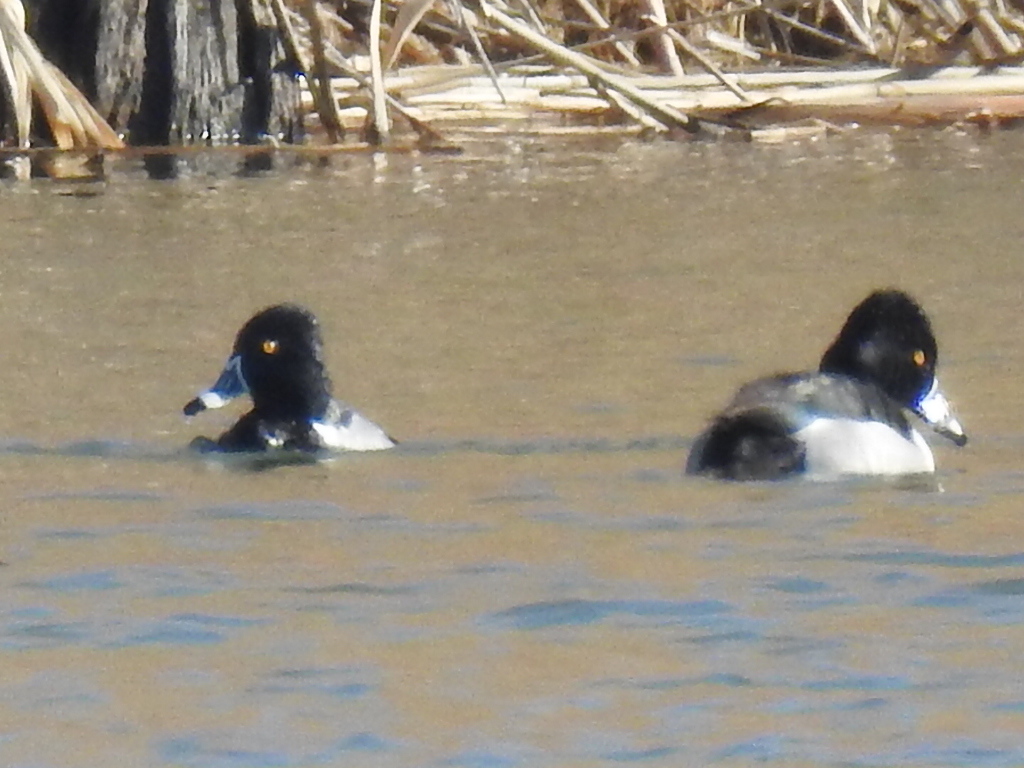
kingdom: Animalia
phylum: Chordata
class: Aves
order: Anseriformes
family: Anatidae
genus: Aythya
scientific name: Aythya collaris
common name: Ring-necked duck
